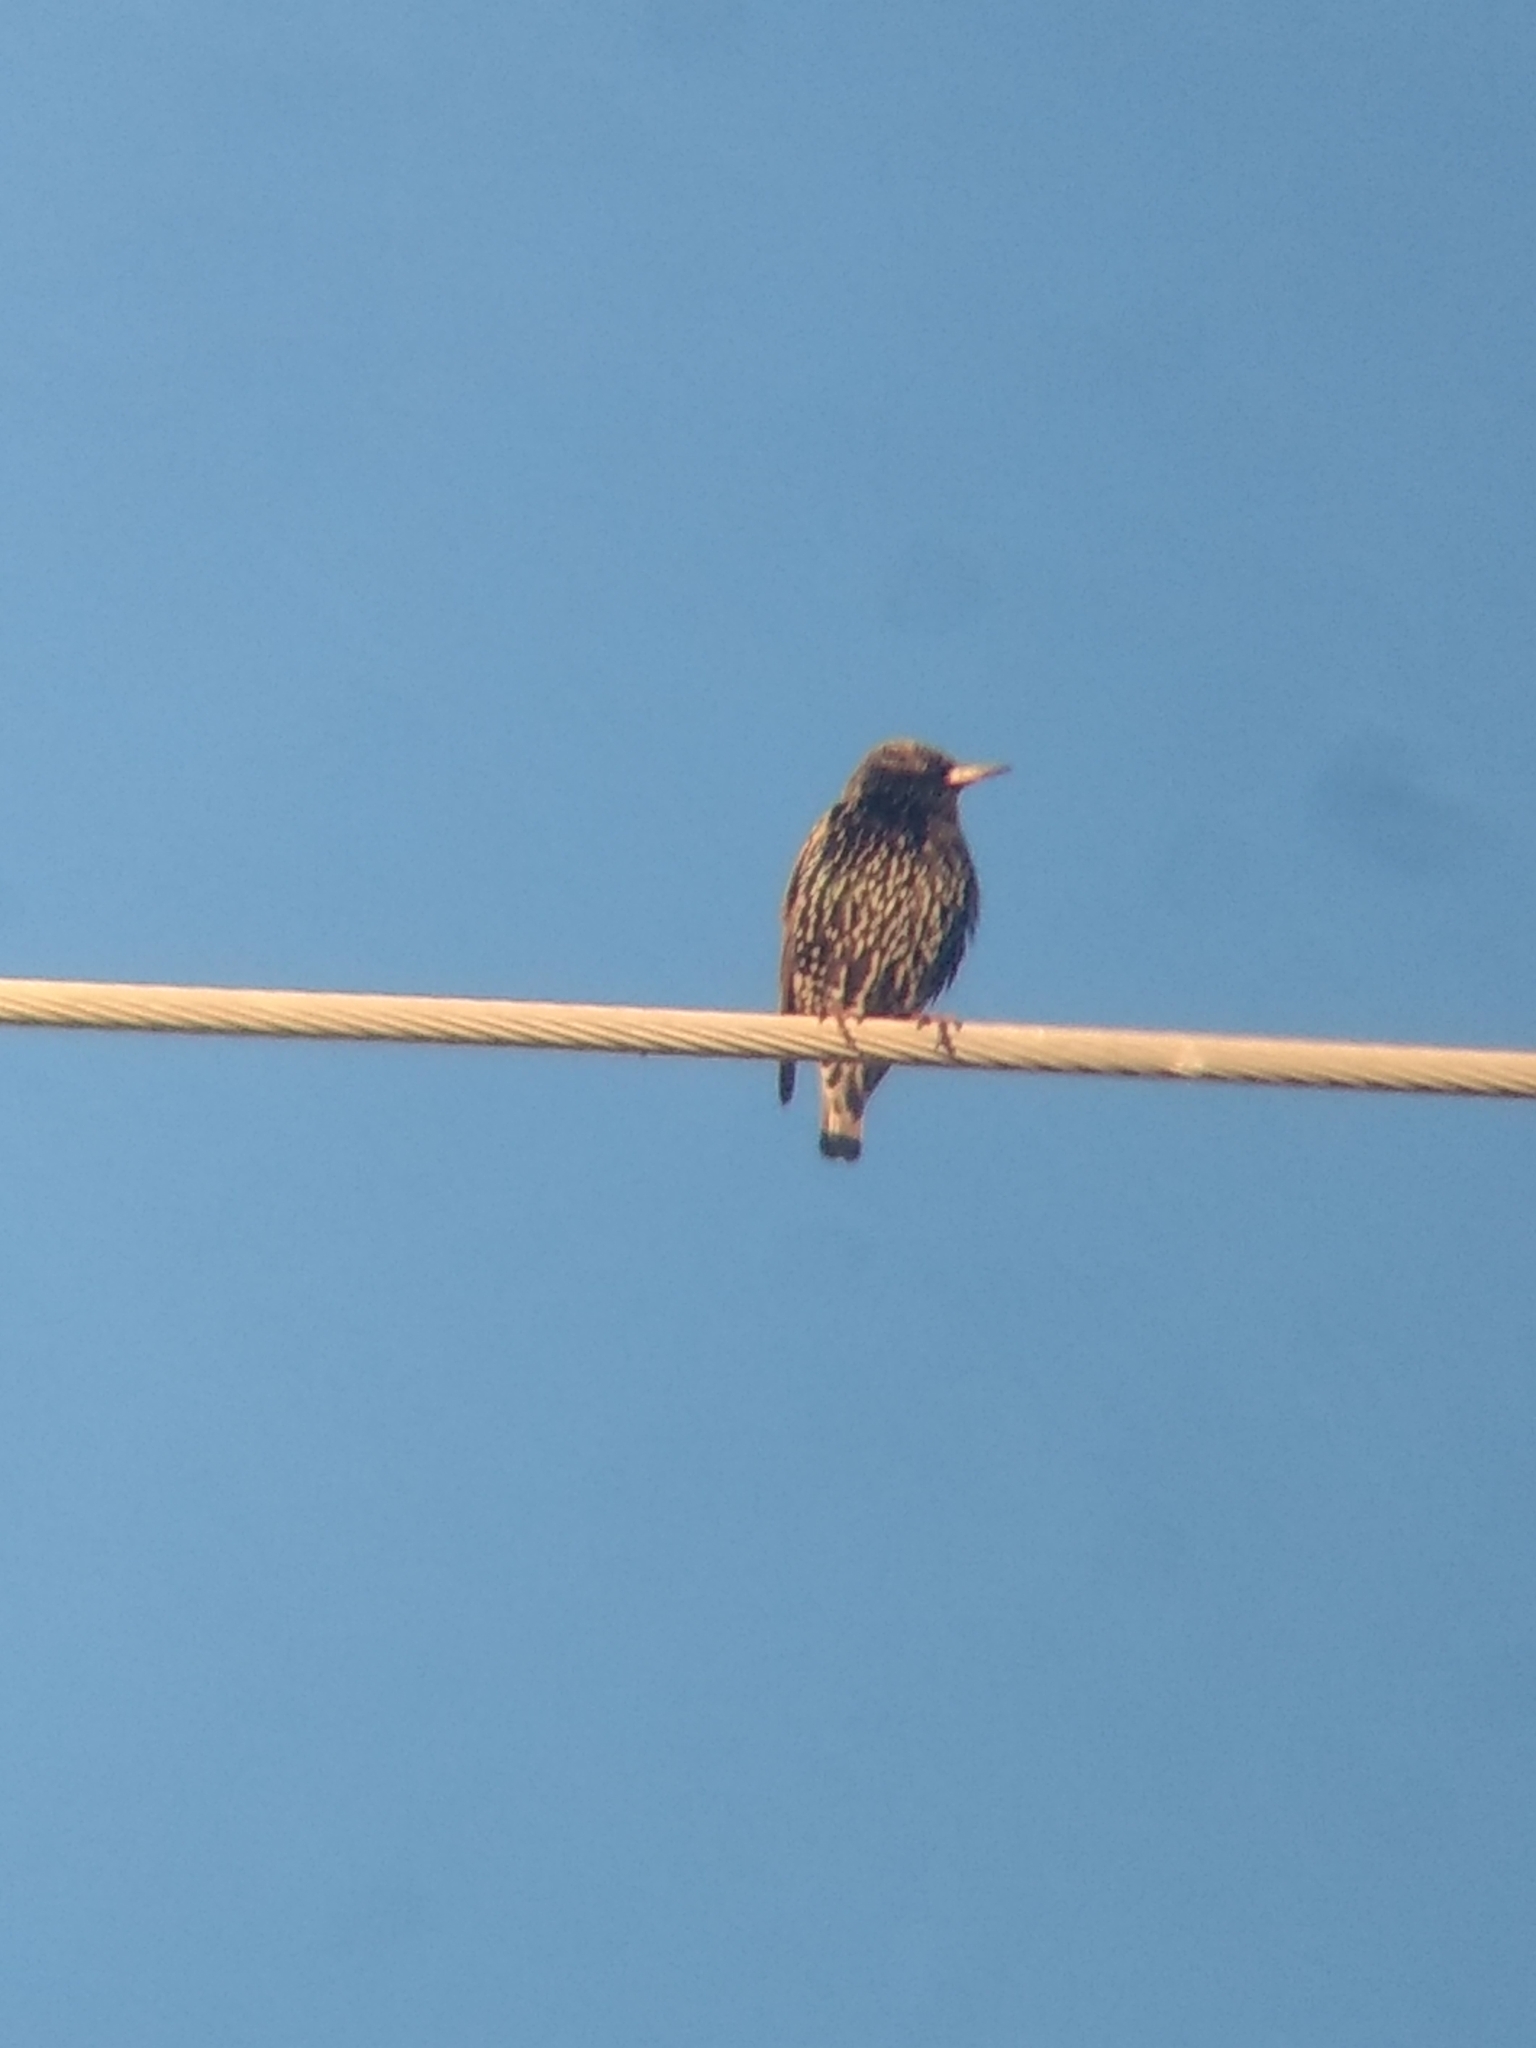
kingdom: Animalia
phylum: Chordata
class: Aves
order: Passeriformes
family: Sturnidae
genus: Sturnus
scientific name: Sturnus vulgaris
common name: Common starling
